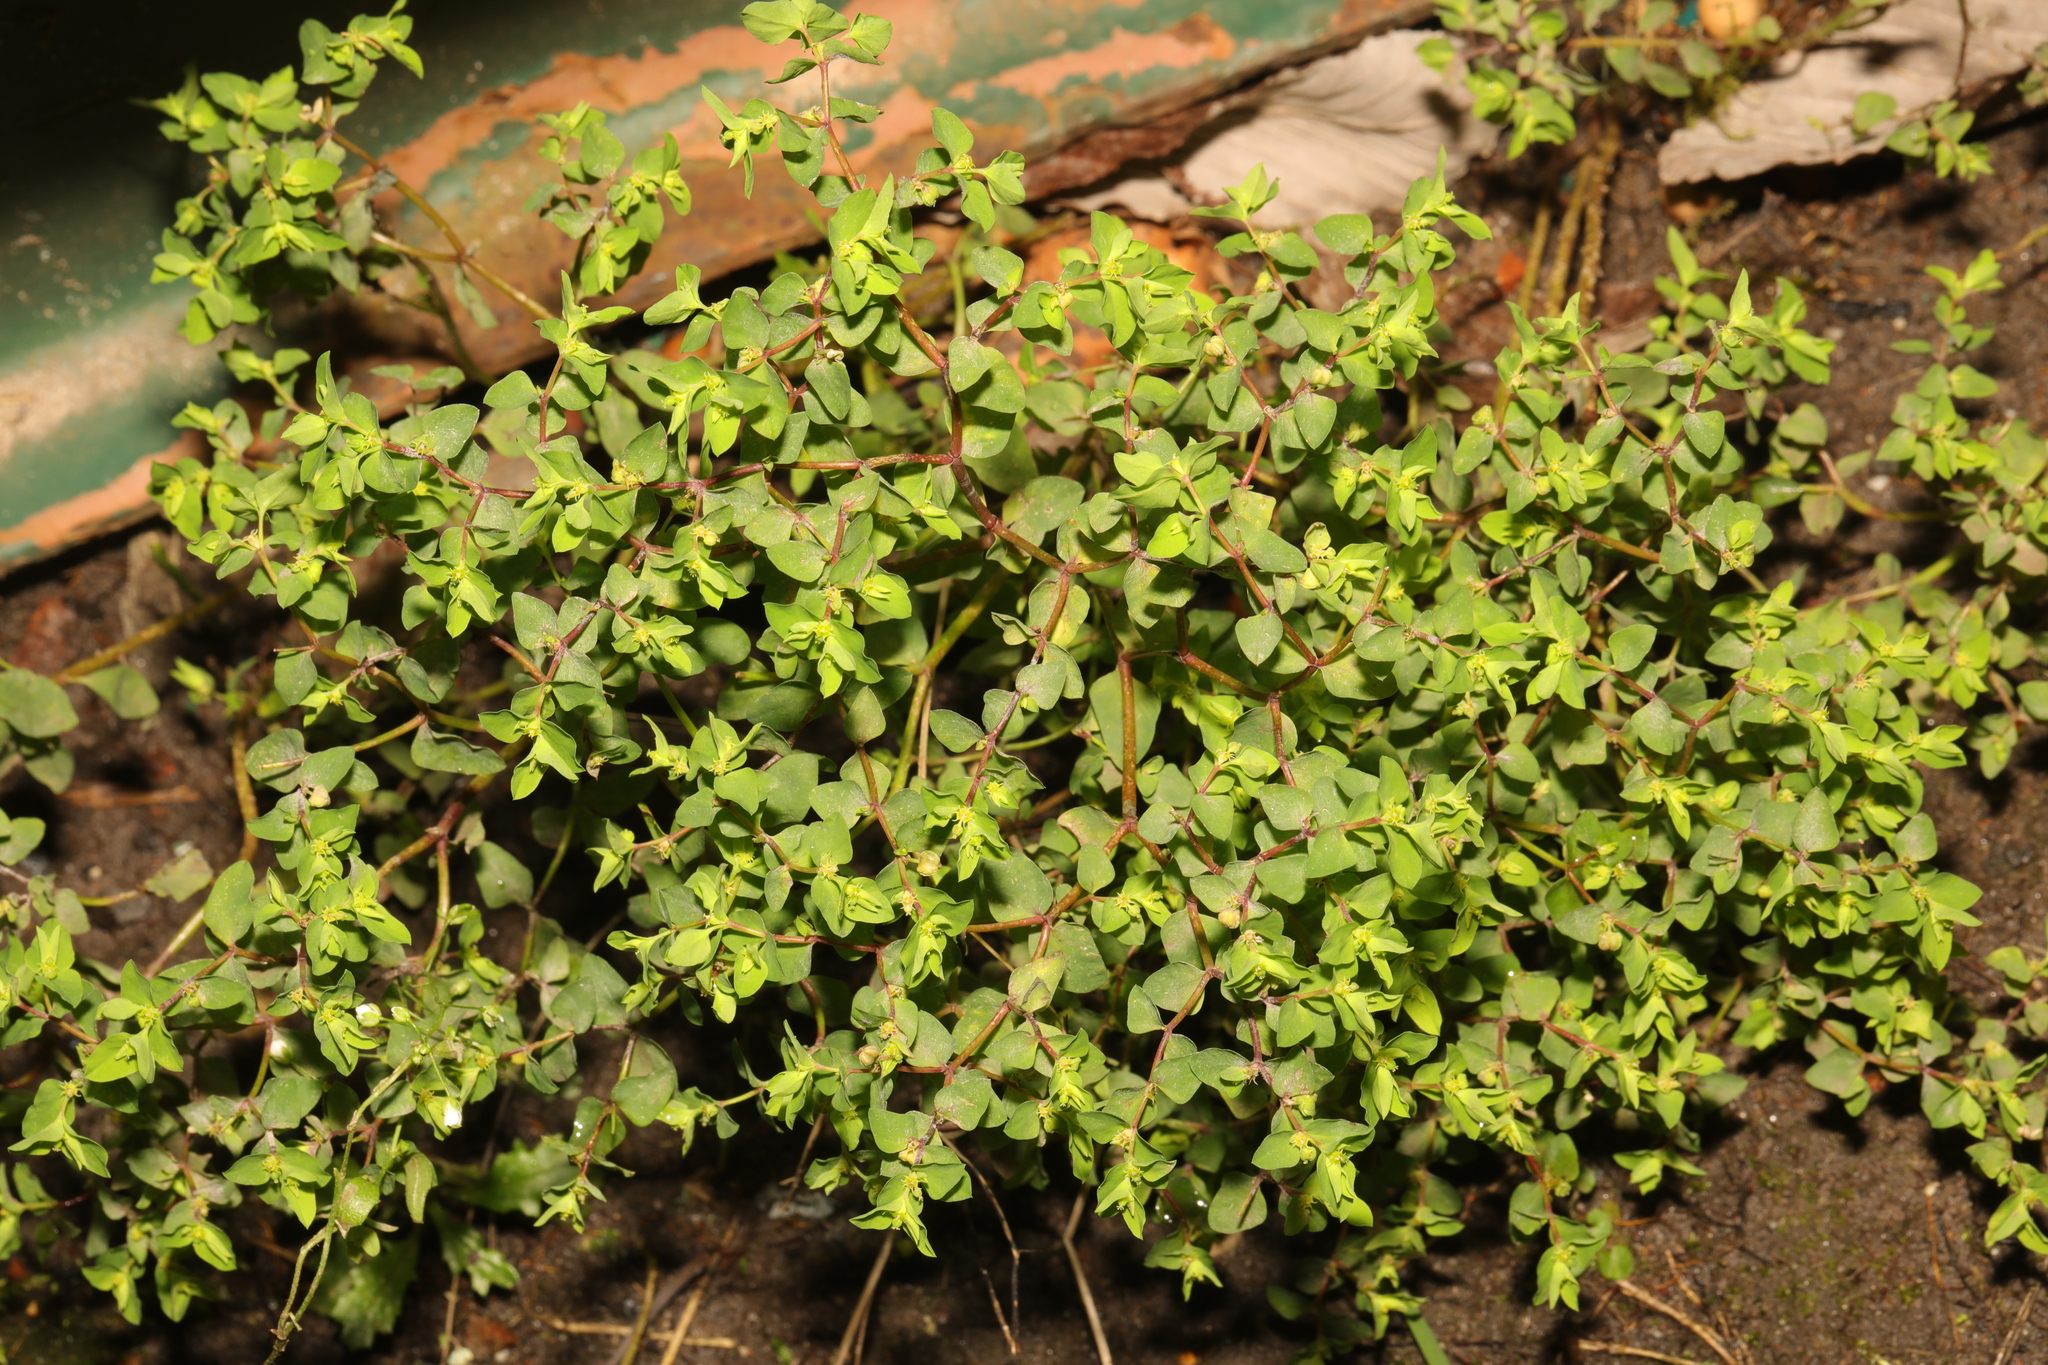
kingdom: Plantae
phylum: Tracheophyta
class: Magnoliopsida
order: Malpighiales
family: Euphorbiaceae
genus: Euphorbia
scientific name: Euphorbia peplus
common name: Petty spurge
